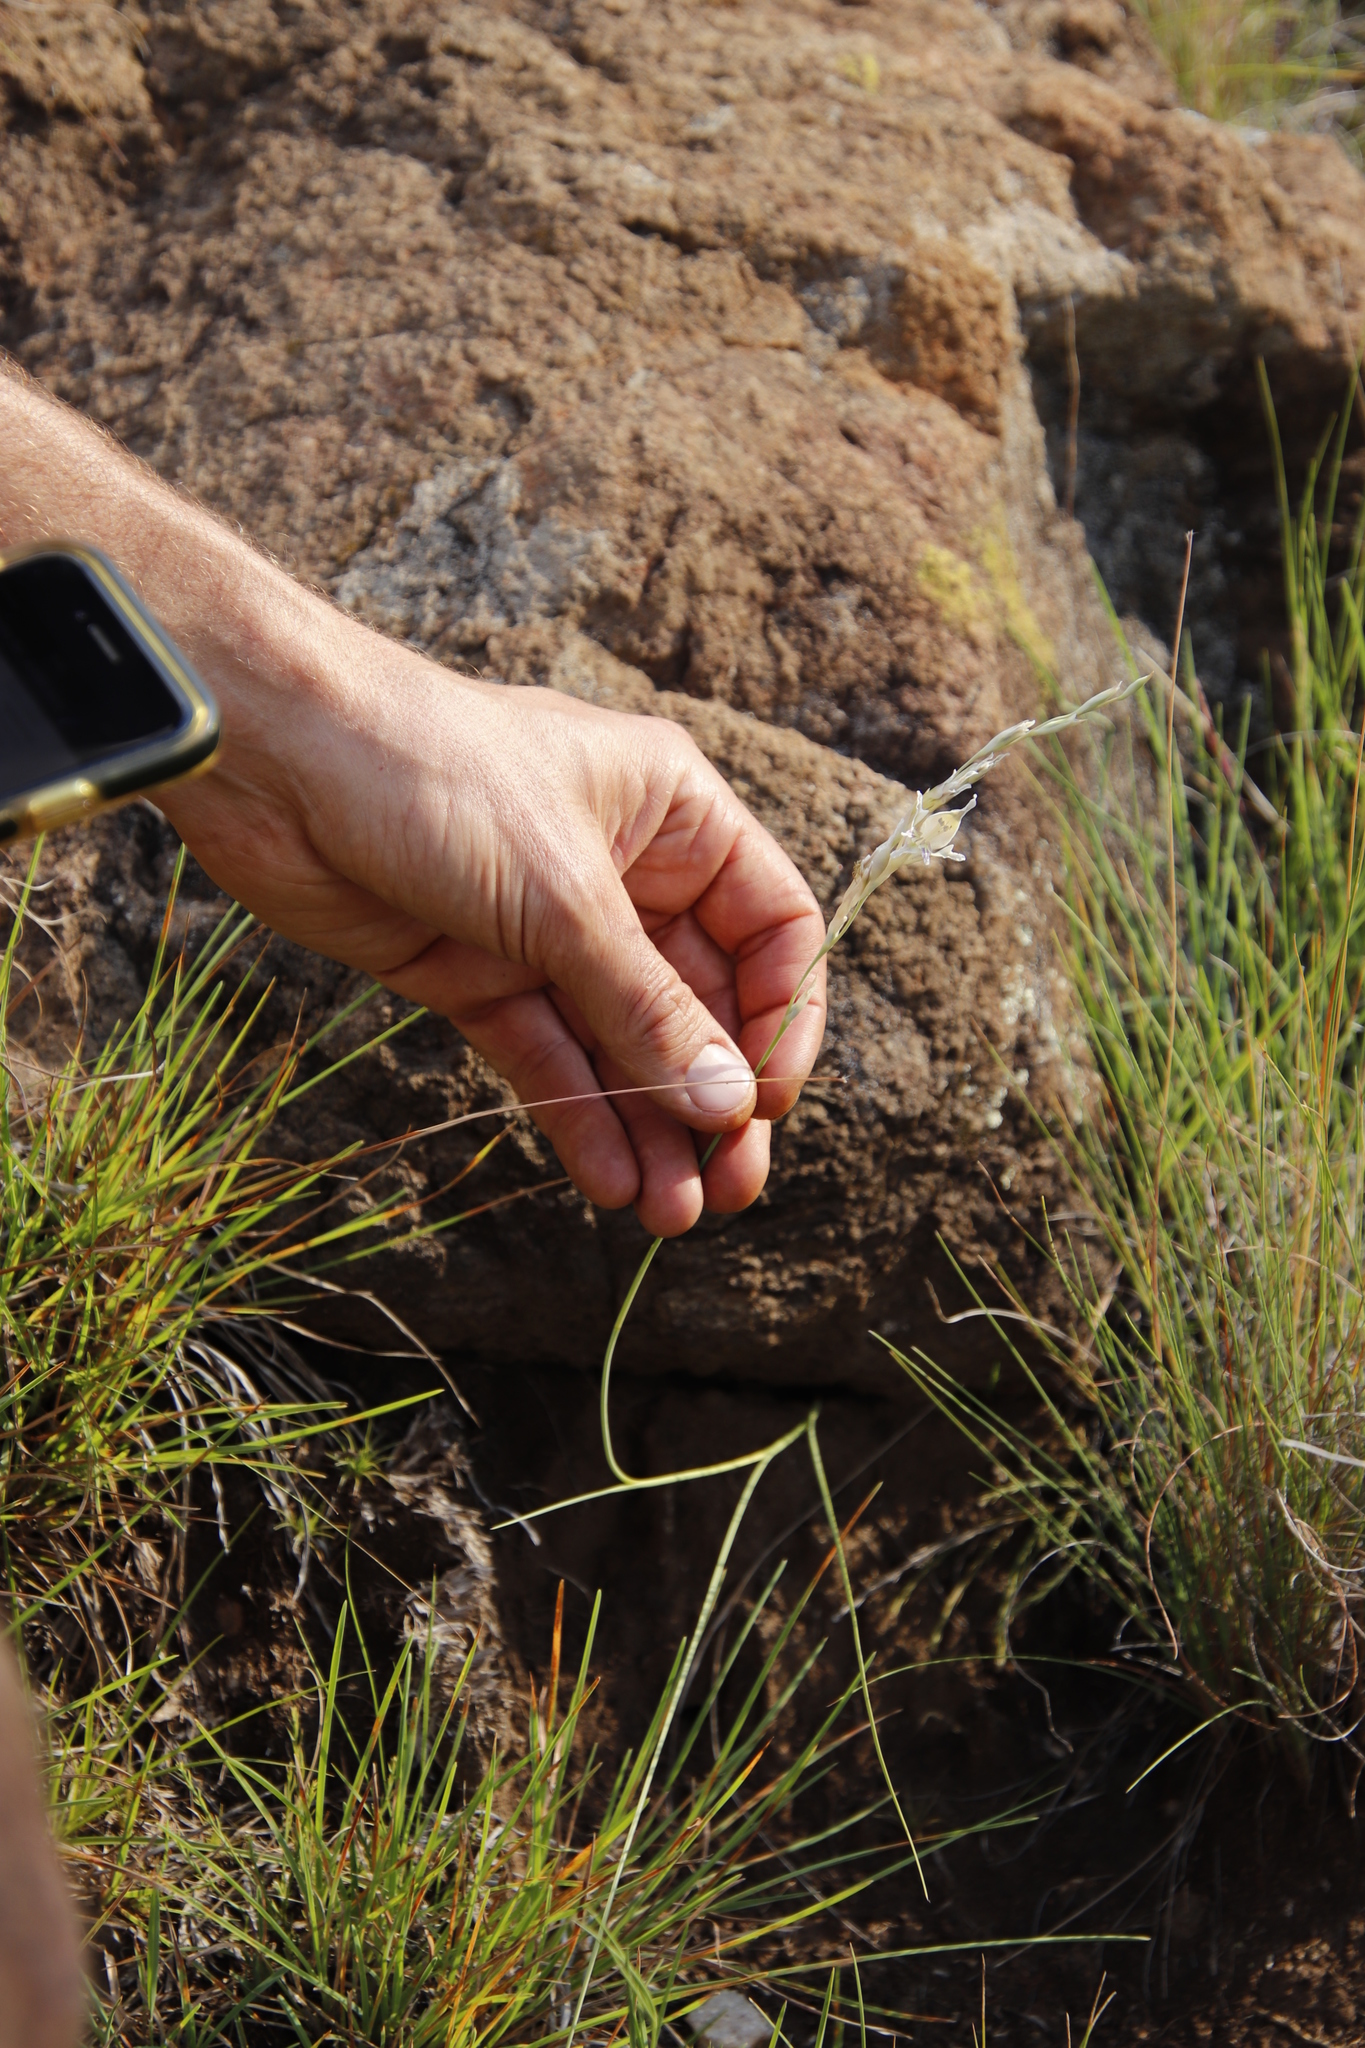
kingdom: Plantae
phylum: Tracheophyta
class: Liliopsida
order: Asparagales
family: Iridaceae
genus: Gladiolus
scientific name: Gladiolus permeabilis
